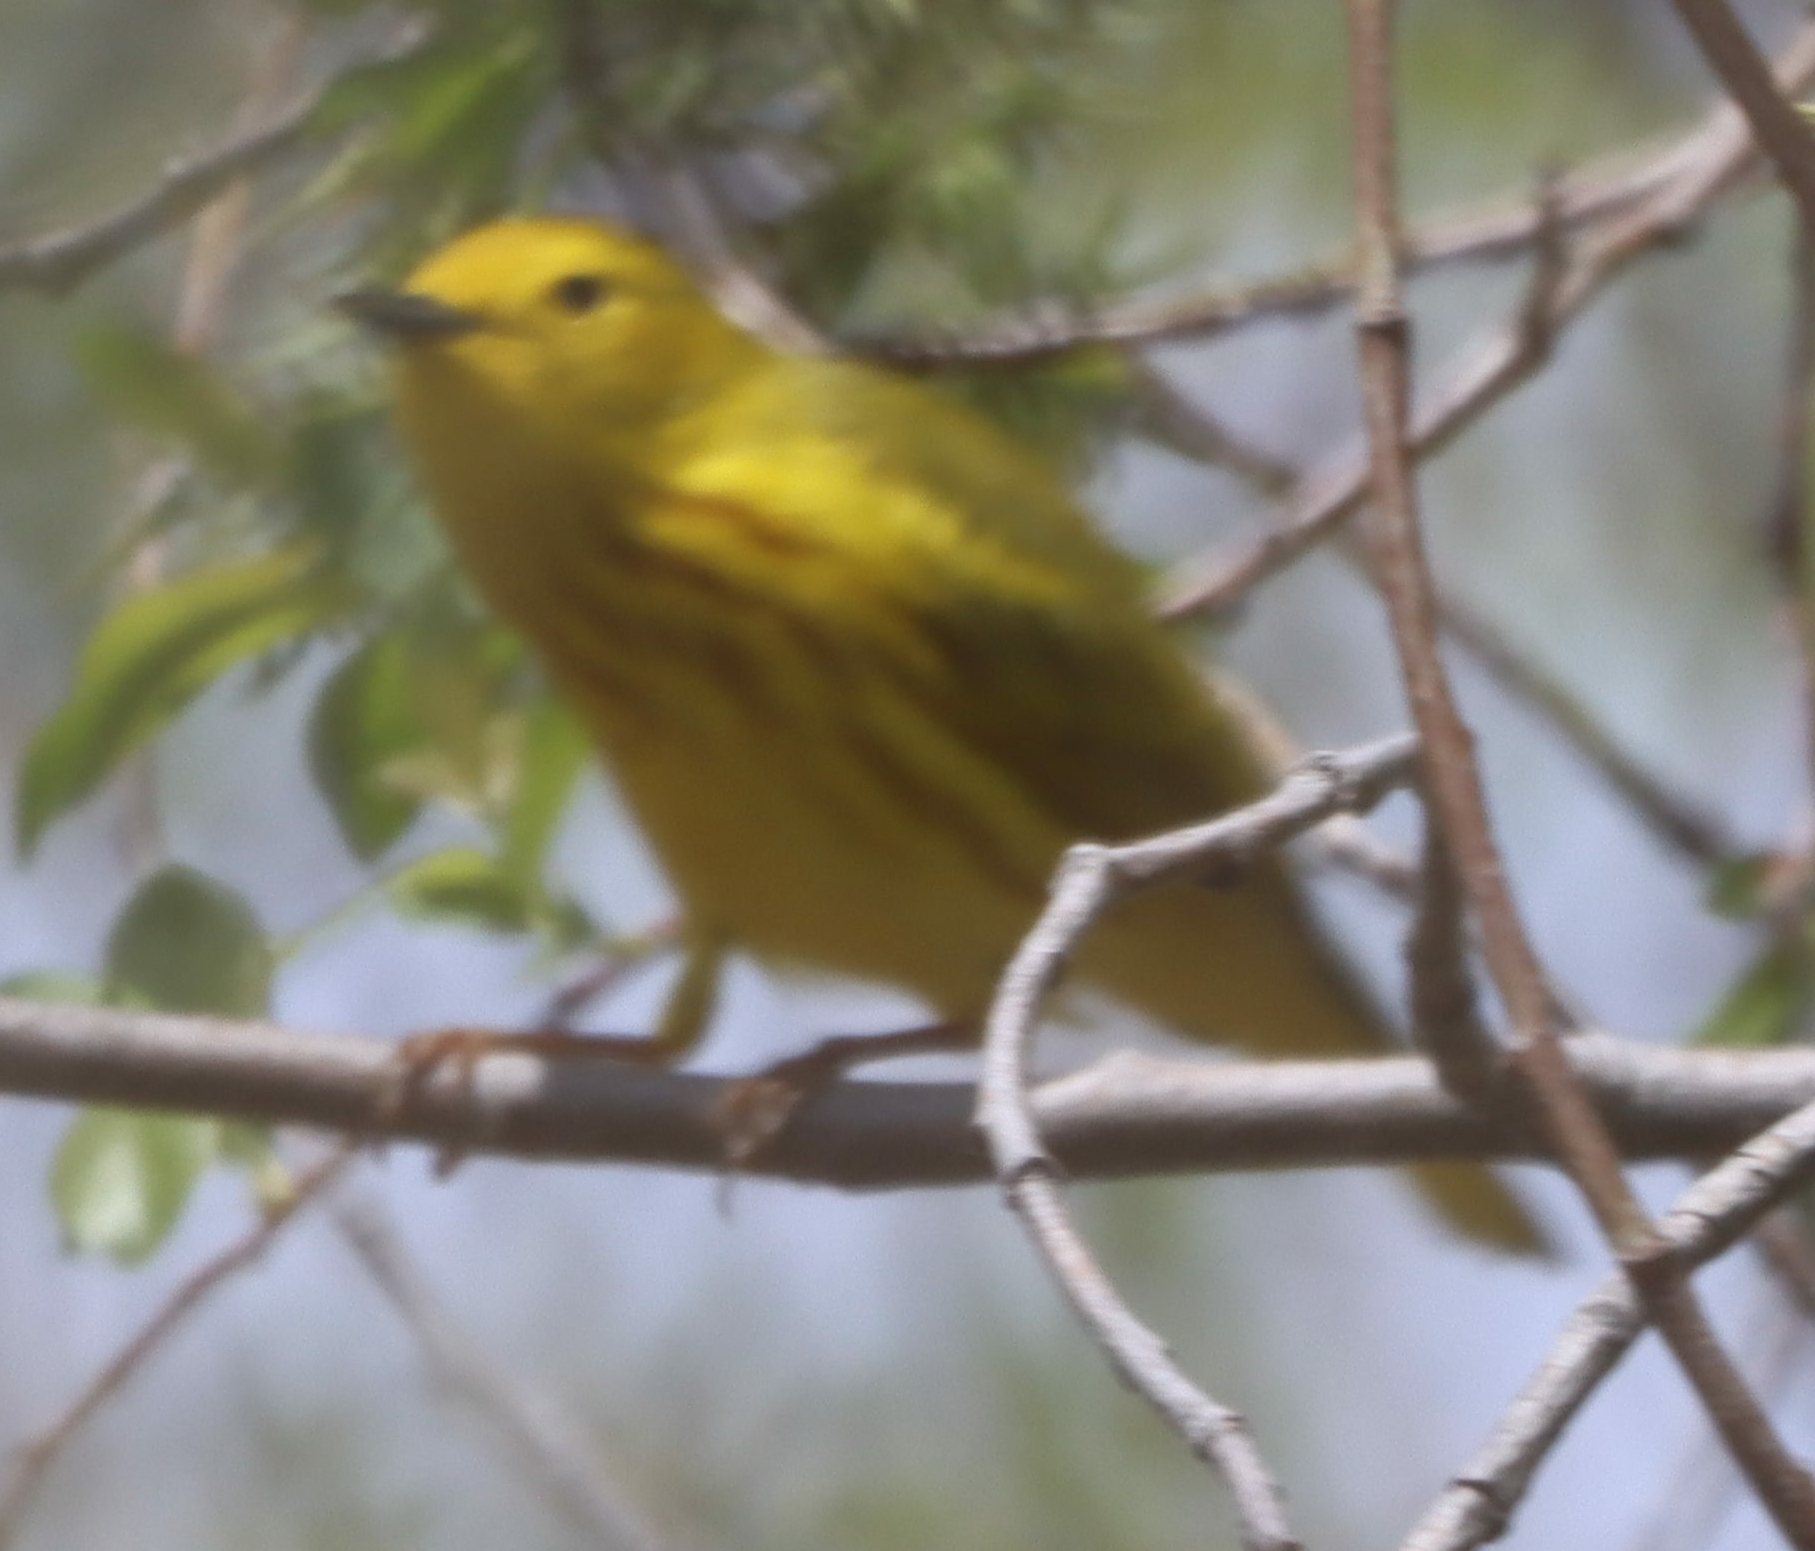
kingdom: Animalia
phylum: Chordata
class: Aves
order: Passeriformes
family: Parulidae
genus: Setophaga
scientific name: Setophaga petechia
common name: Yellow warbler
